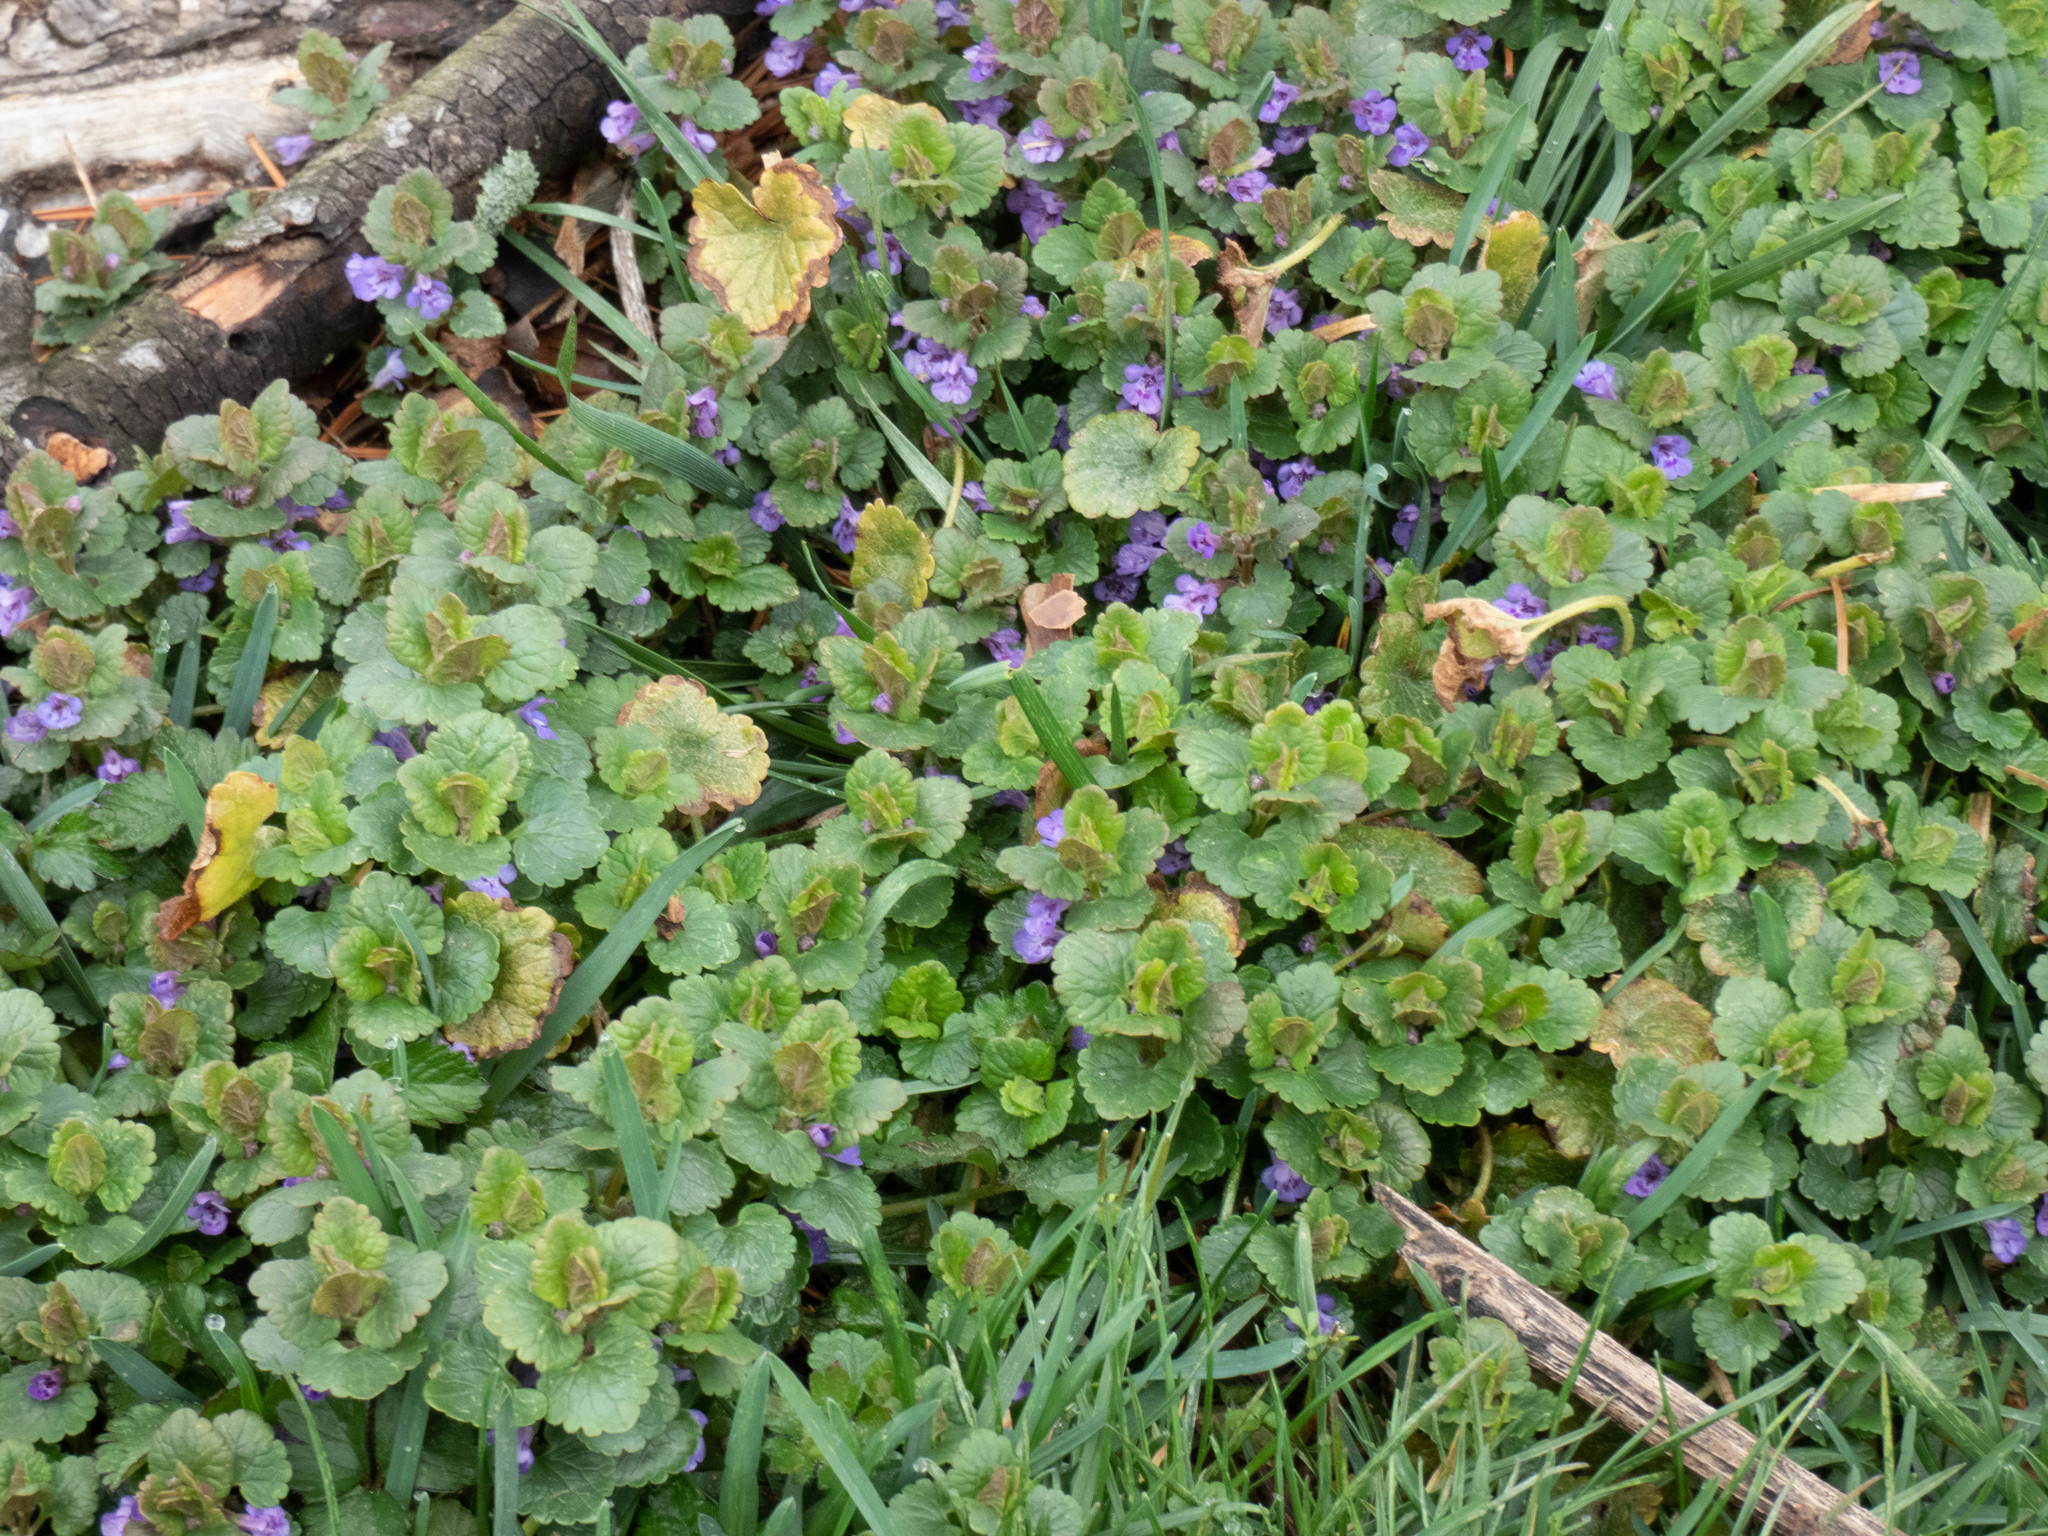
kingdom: Plantae
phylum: Tracheophyta
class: Magnoliopsida
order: Lamiales
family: Lamiaceae
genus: Glechoma
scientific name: Glechoma hederacea
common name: Ground ivy
